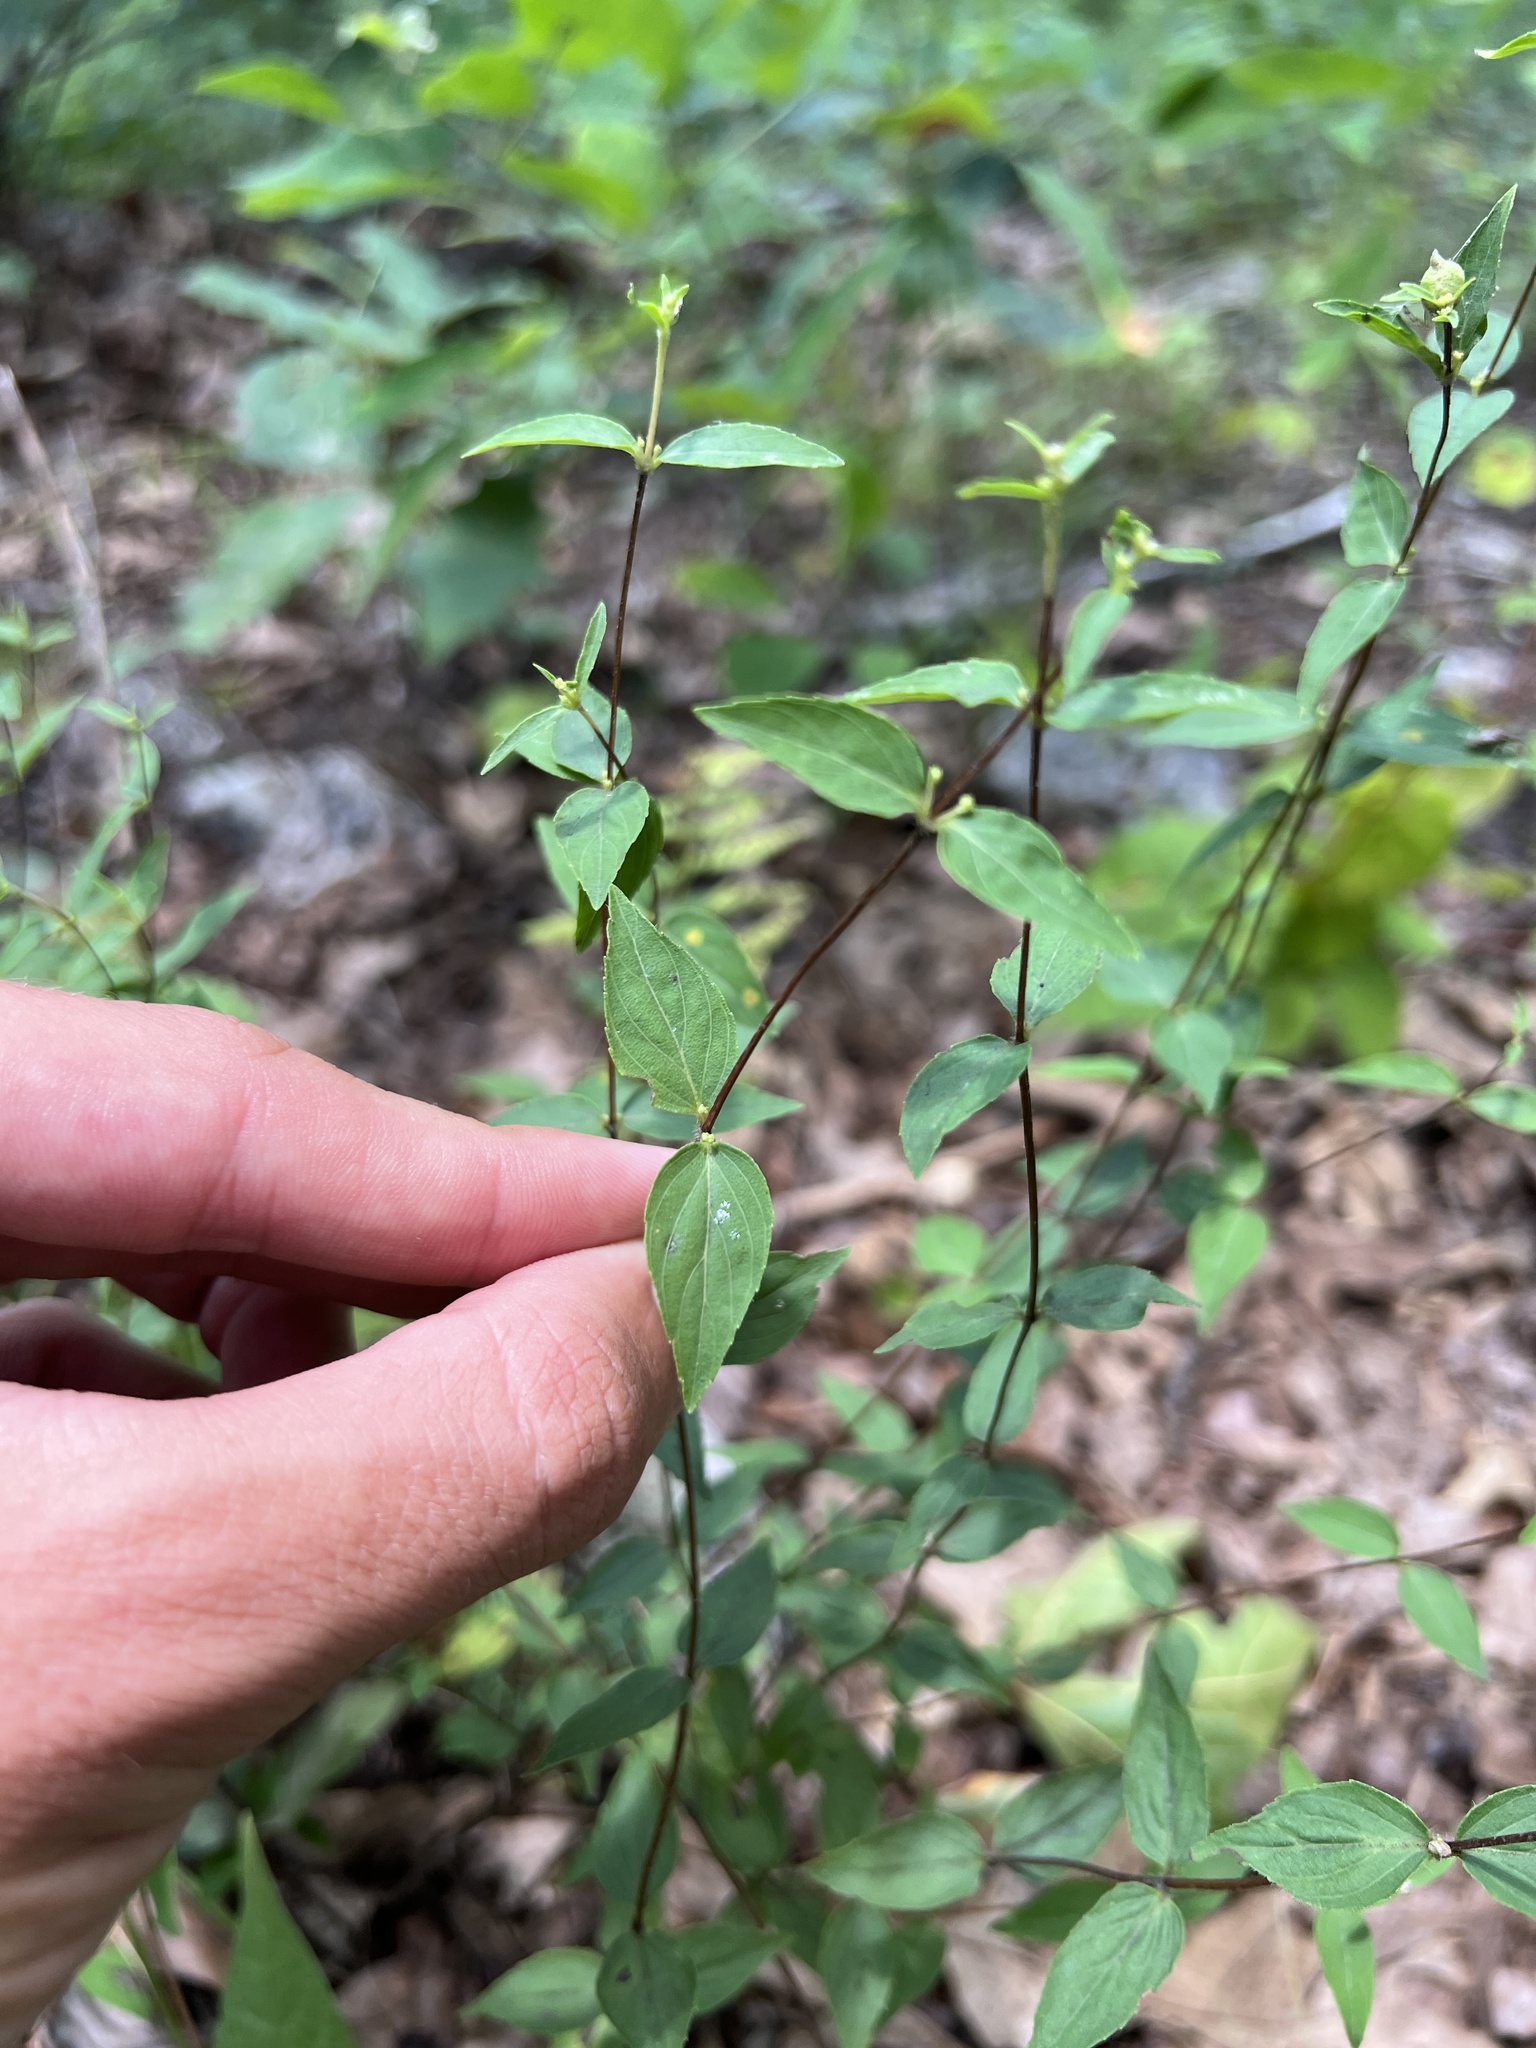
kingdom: Plantae
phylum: Tracheophyta
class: Magnoliopsida
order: Lamiales
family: Lamiaceae
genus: Cunila
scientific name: Cunila origanoides
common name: American dittany
